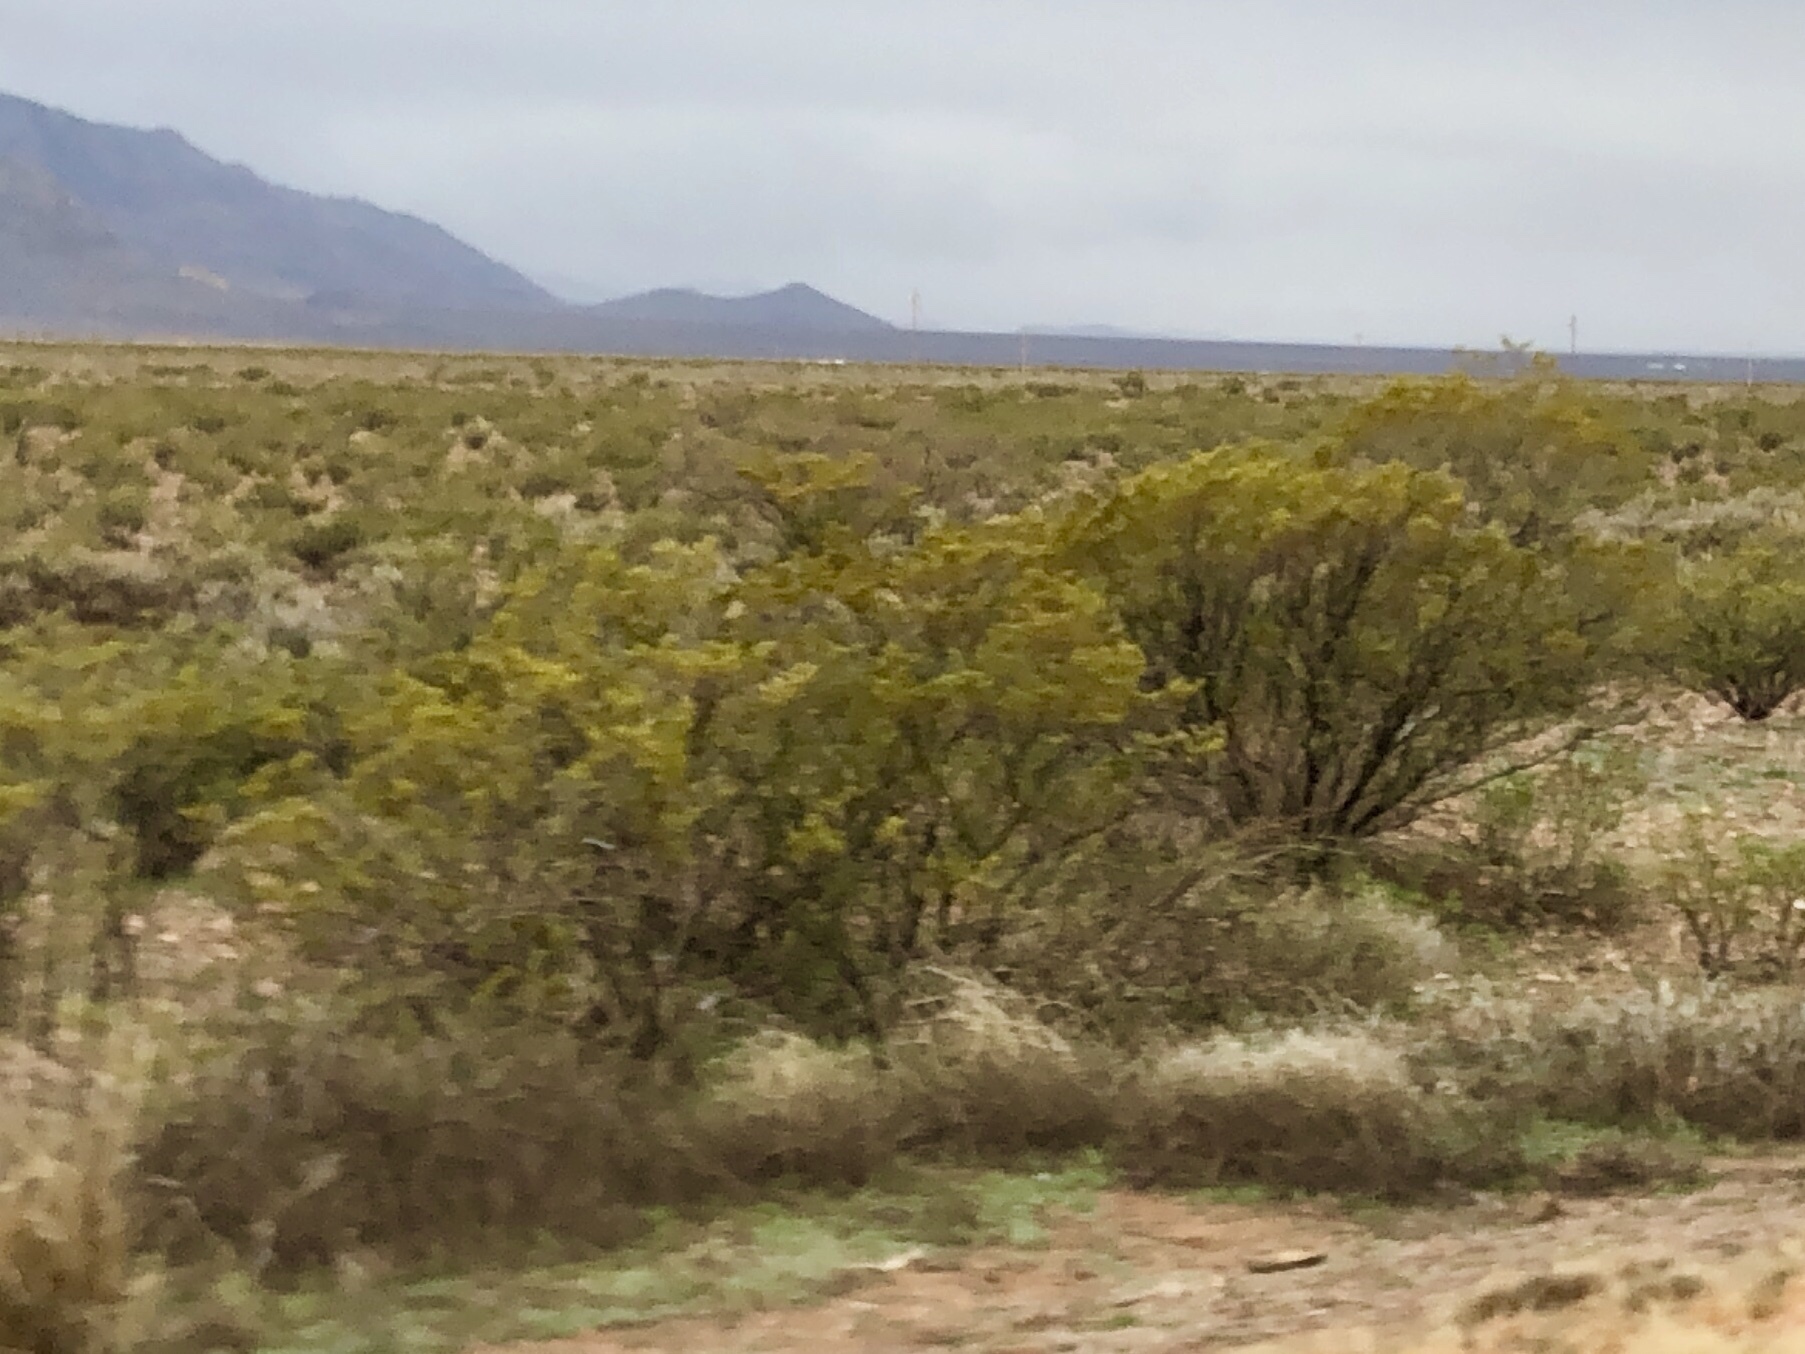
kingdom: Plantae
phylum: Tracheophyta
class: Magnoliopsida
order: Zygophyllales
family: Zygophyllaceae
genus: Larrea
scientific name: Larrea tridentata
